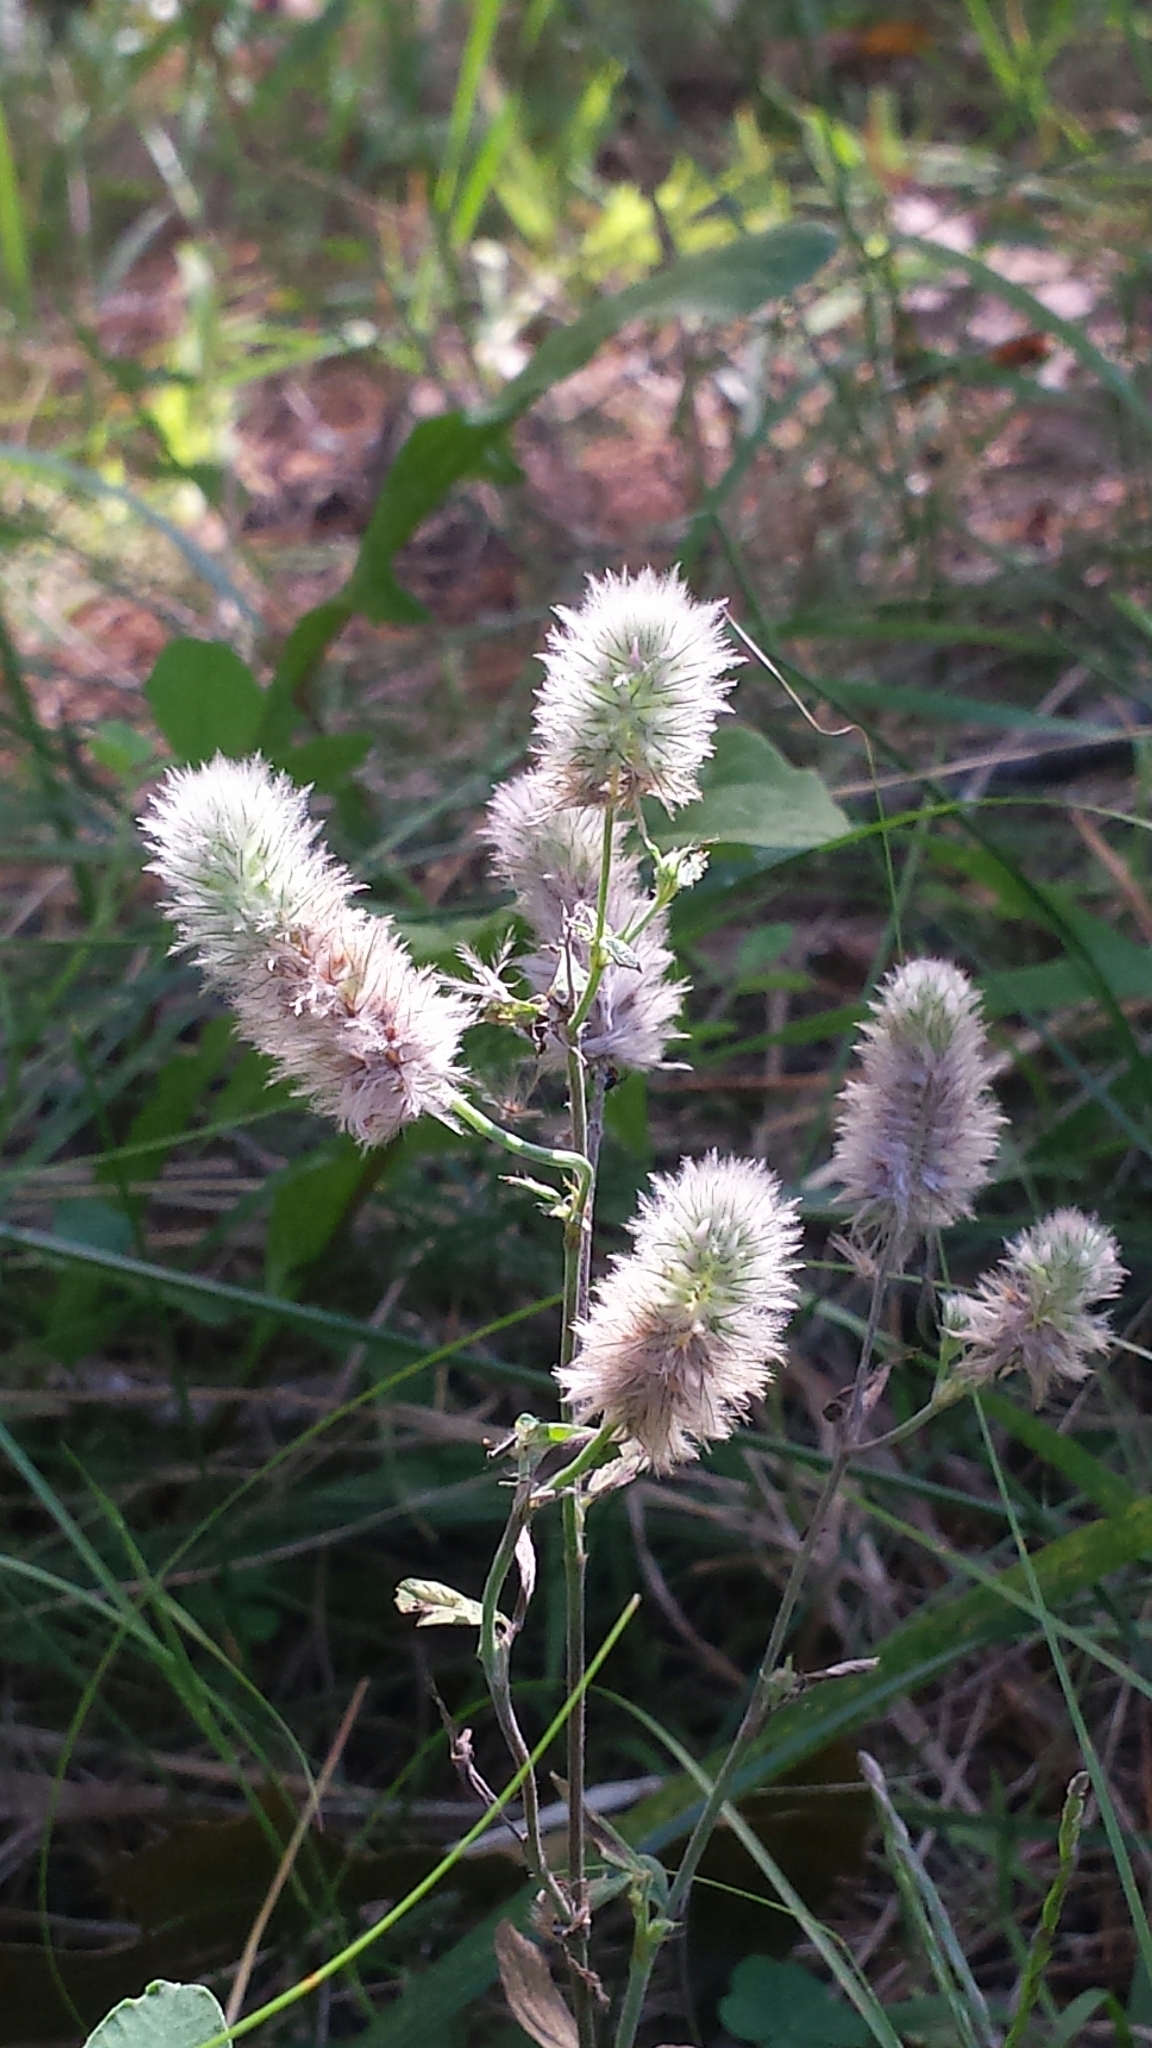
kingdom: Plantae
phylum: Tracheophyta
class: Magnoliopsida
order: Fabales
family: Fabaceae
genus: Trifolium
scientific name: Trifolium arvense
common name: Hare's-foot clover
